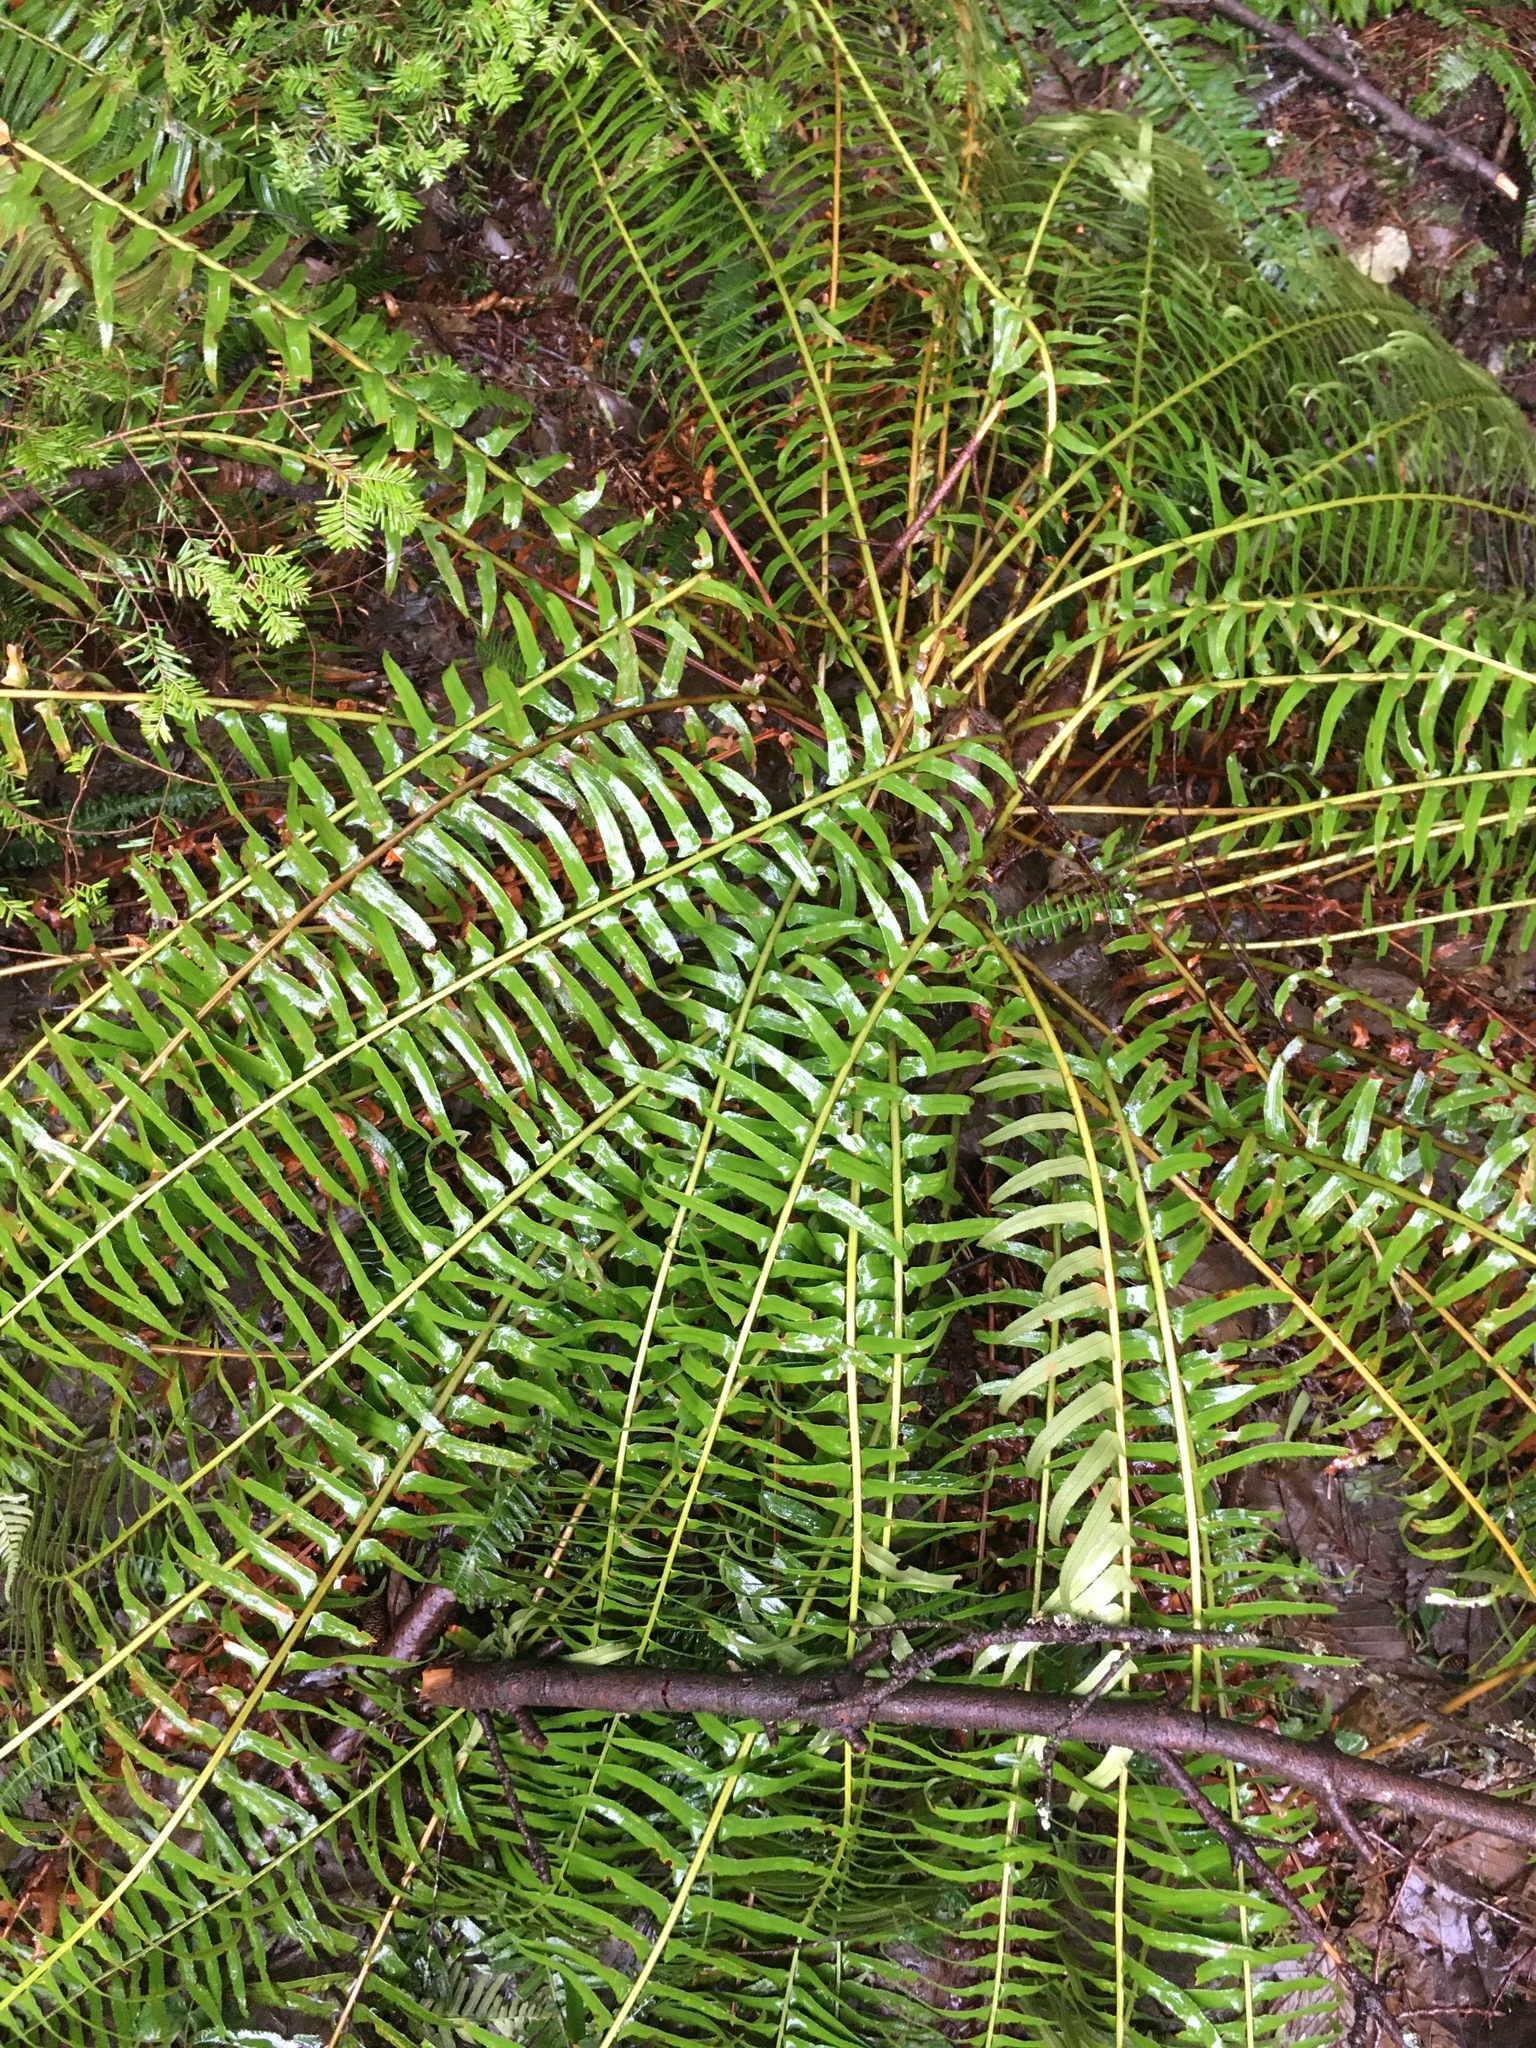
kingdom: Plantae
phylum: Tracheophyta
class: Polypodiopsida
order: Polypodiales
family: Dryopteridaceae
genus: Polystichum
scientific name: Polystichum munitum
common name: Western sword-fern
